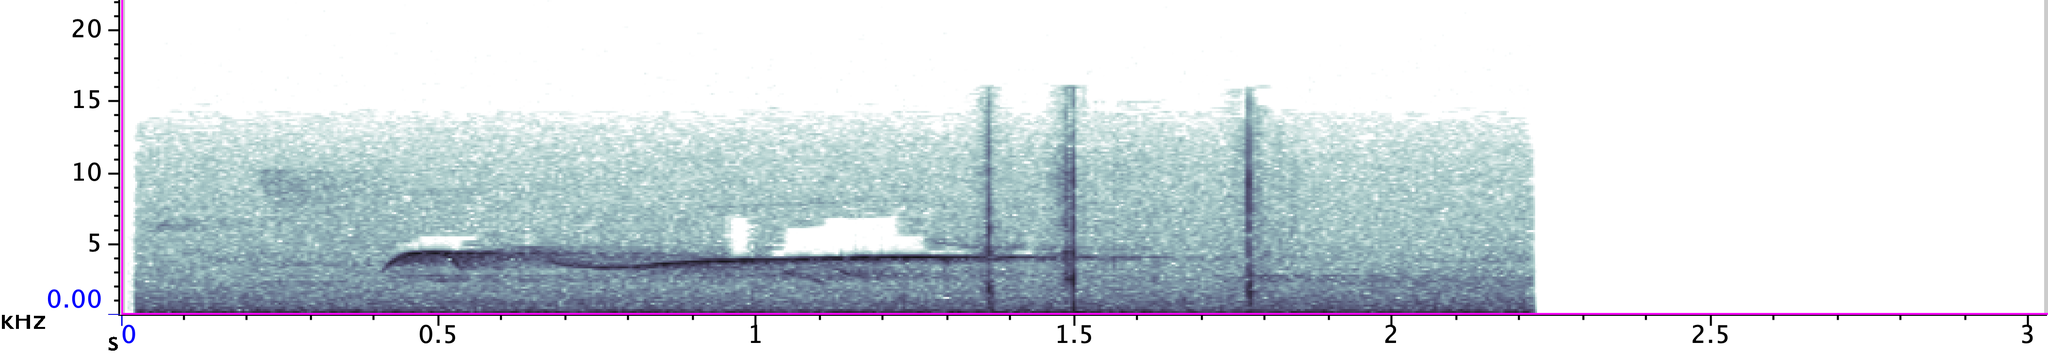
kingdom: Animalia
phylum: Chordata
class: Aves
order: Passeriformes
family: Tyrannidae
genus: Contopus
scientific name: Contopus virens
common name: Eastern wood-pewee
